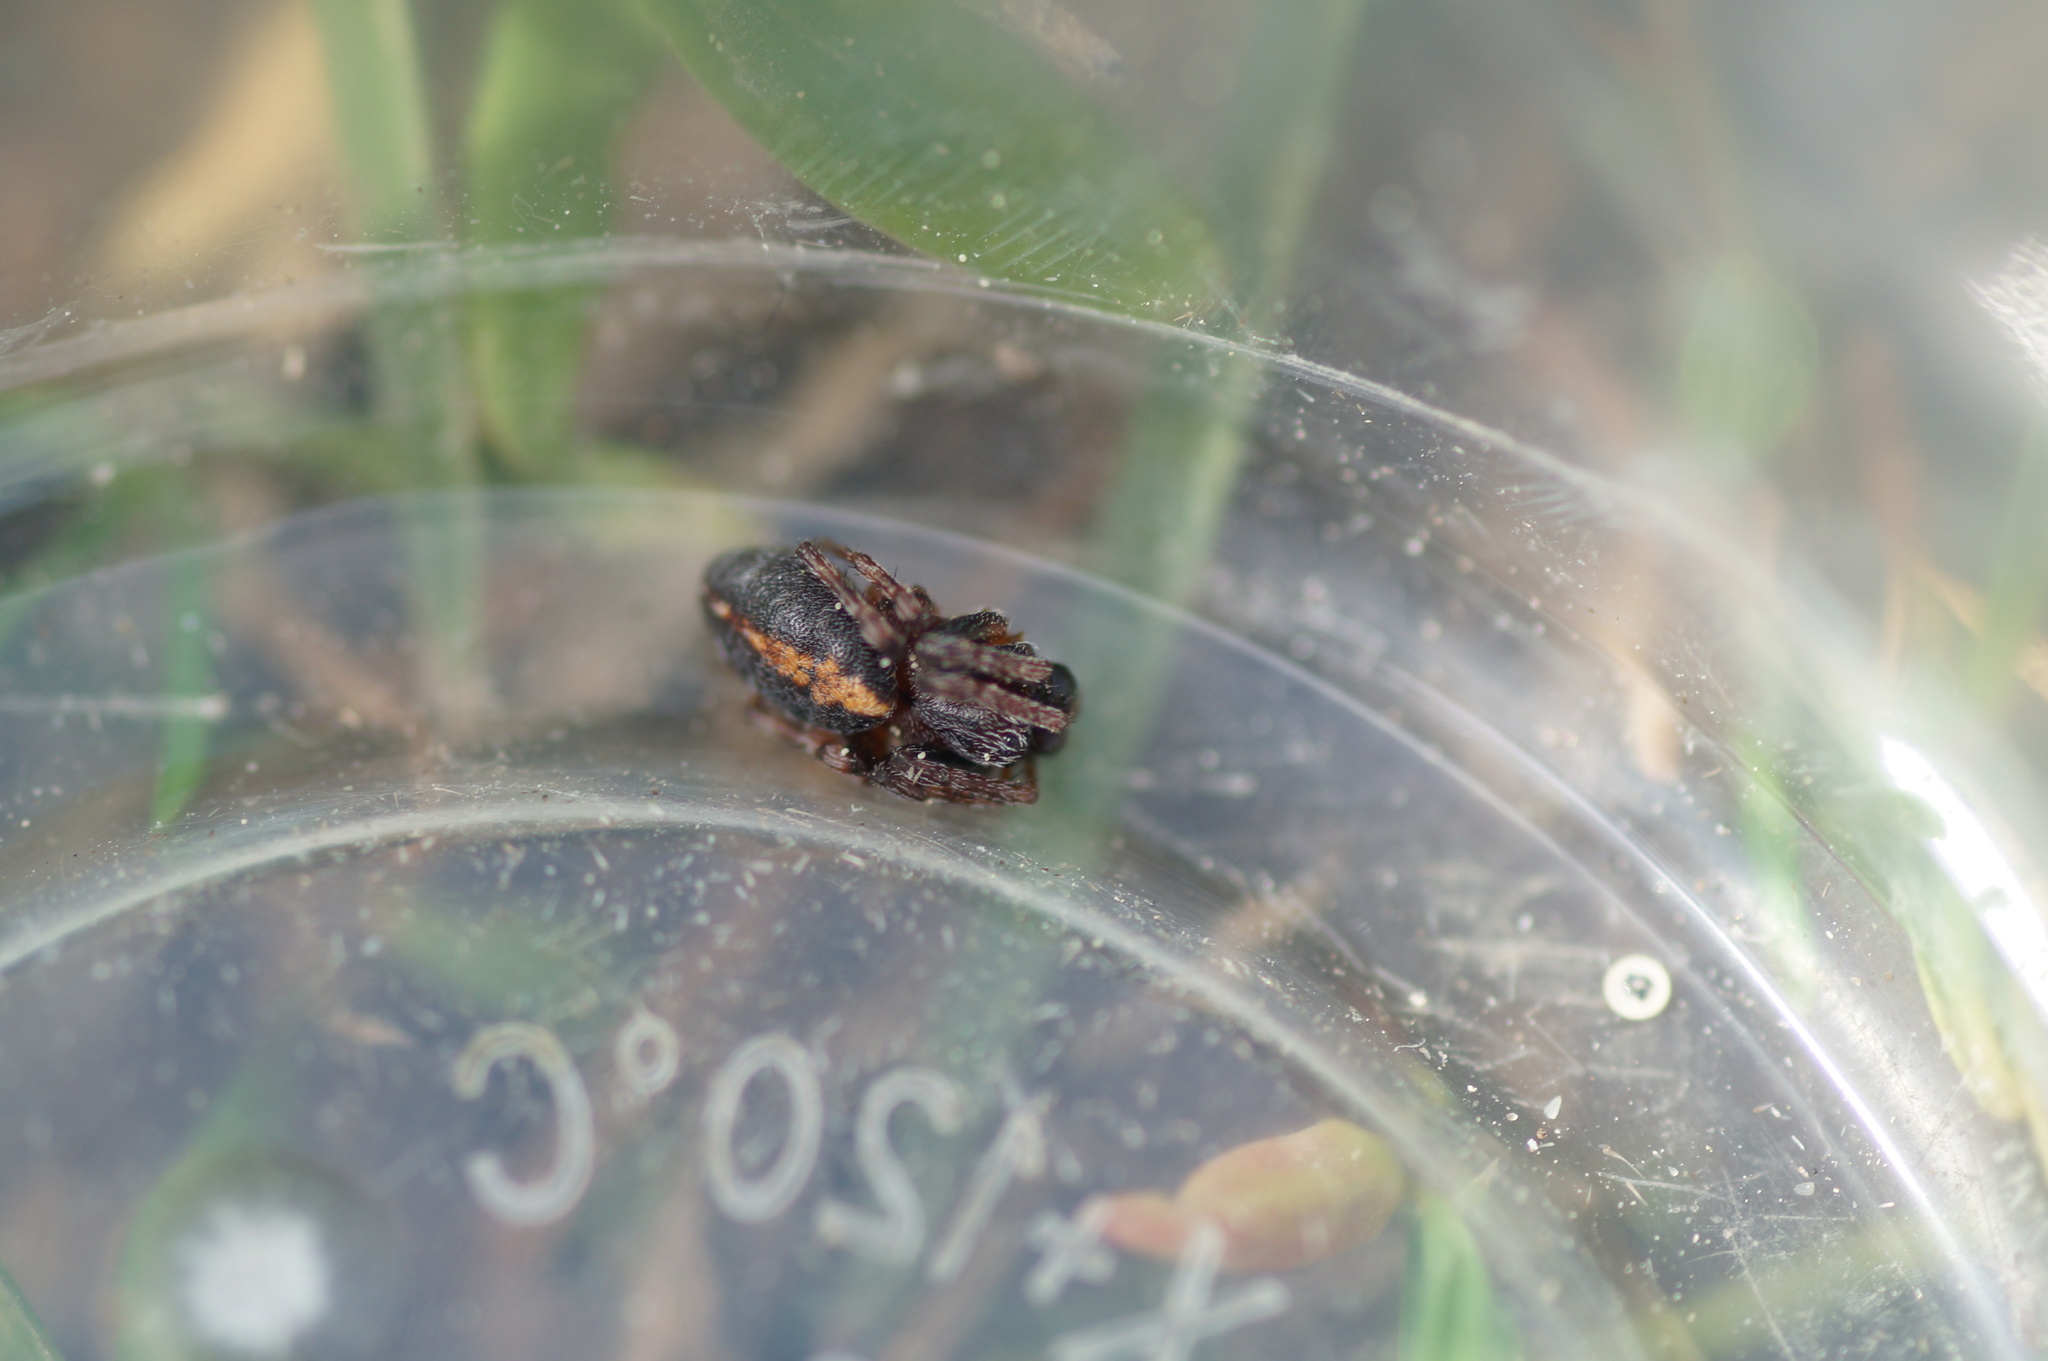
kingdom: Animalia
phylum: Arthropoda
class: Arachnida
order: Araneae
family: Araneidae
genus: Cercidia
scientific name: Cercidia prominens
